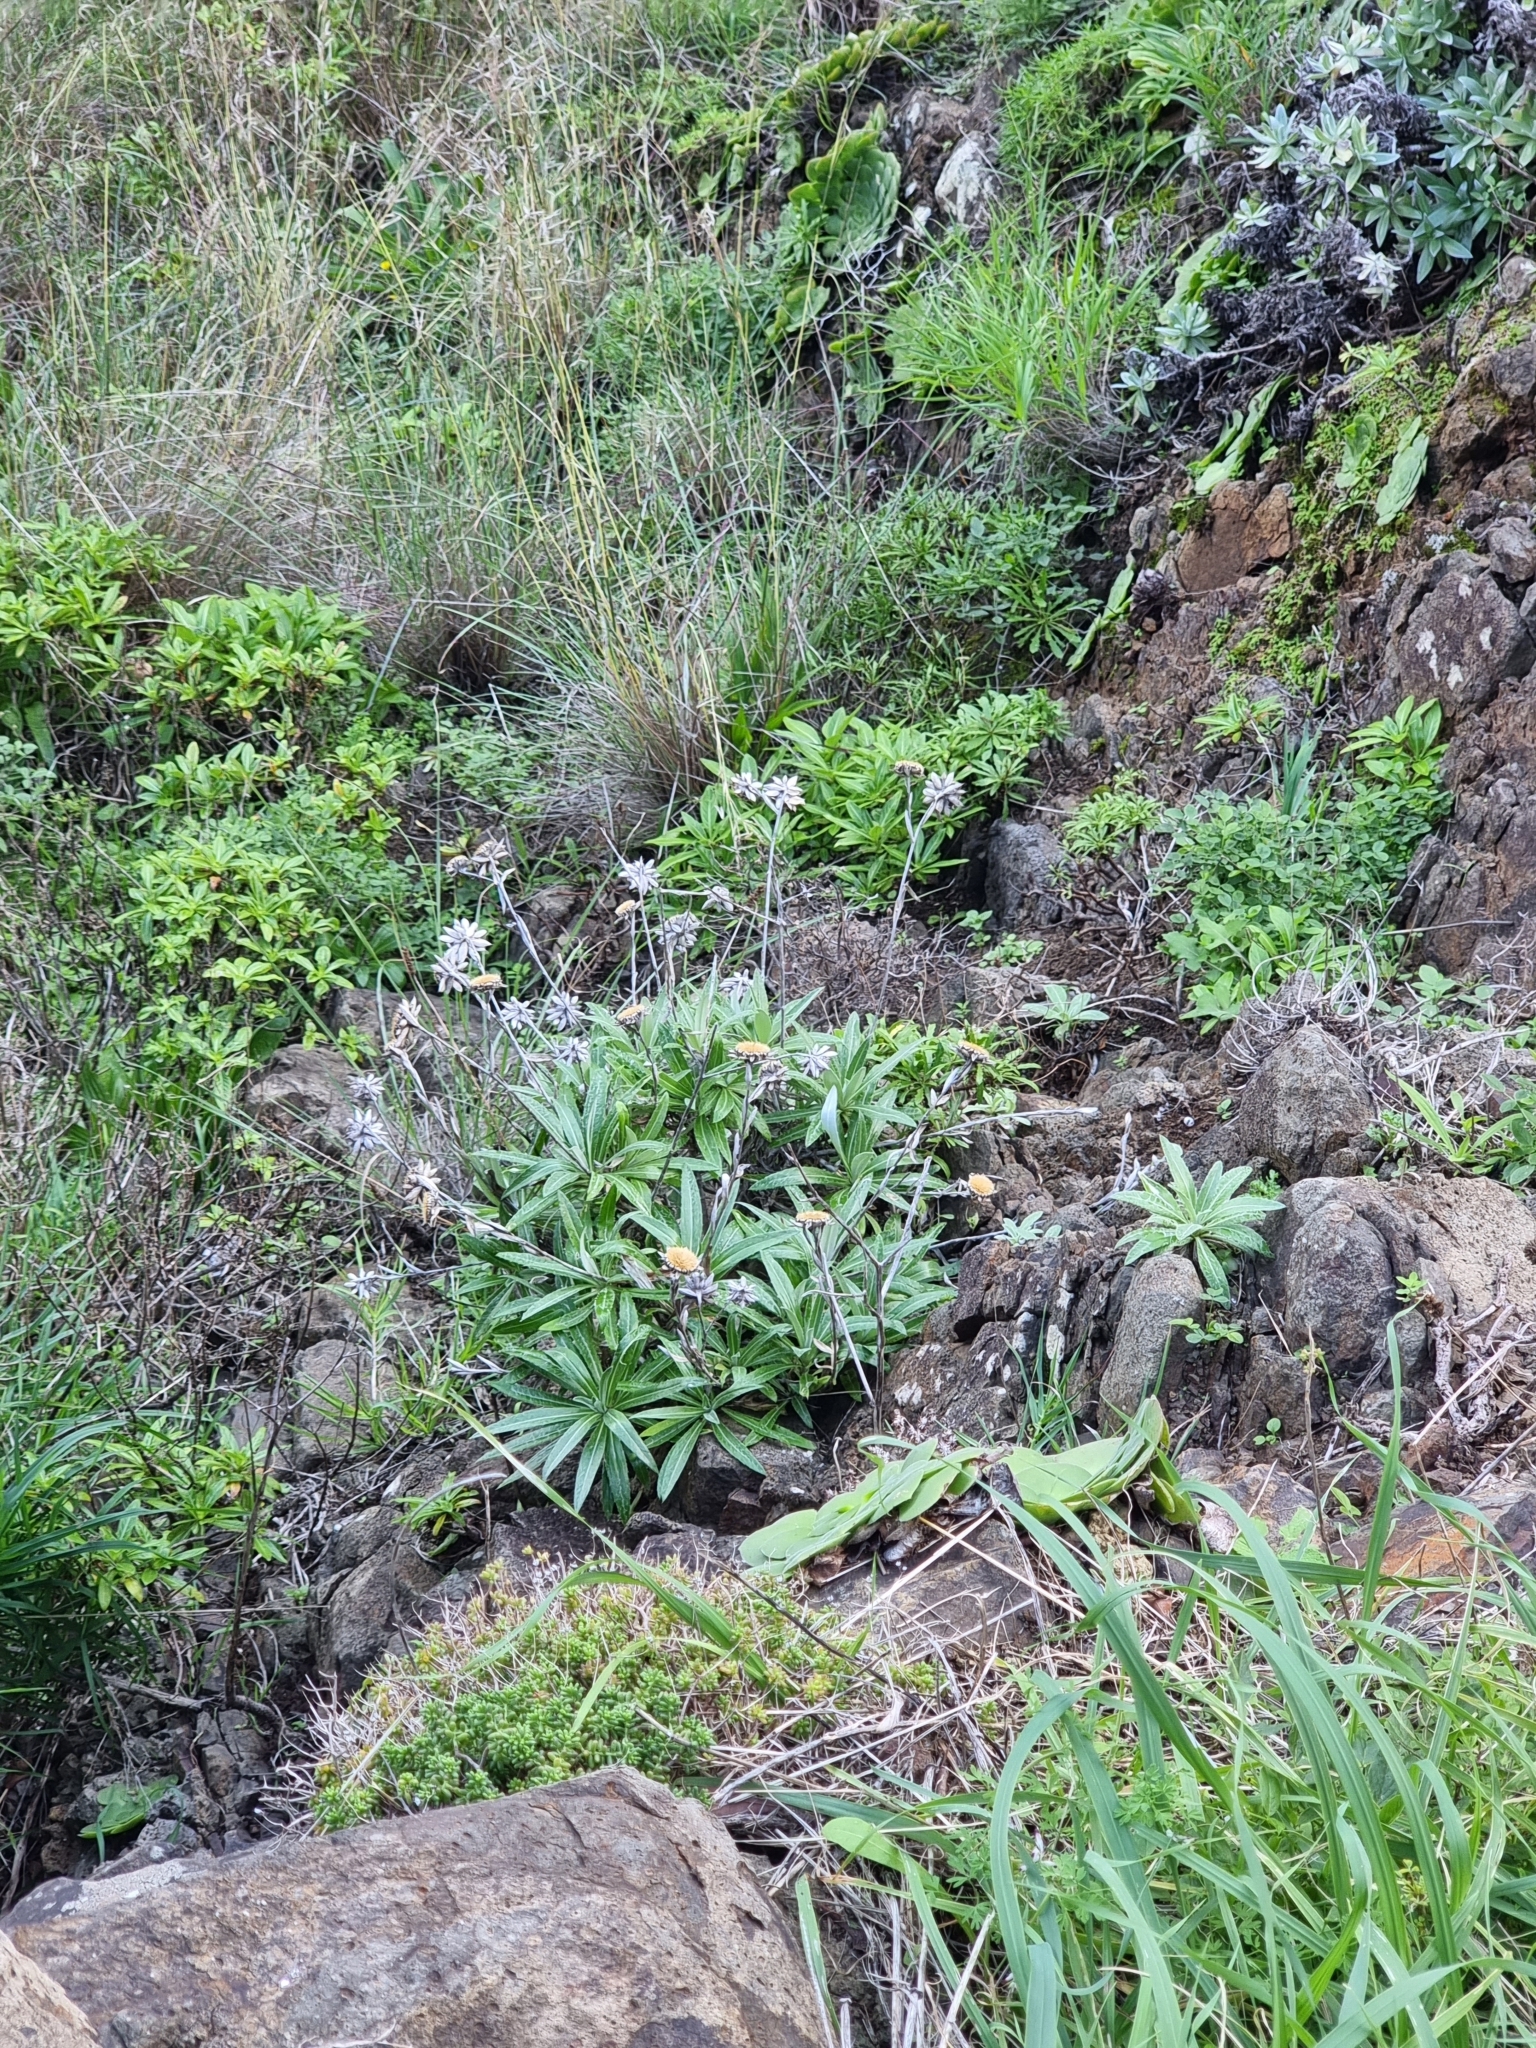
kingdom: Plantae
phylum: Tracheophyta
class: Magnoliopsida
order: Asterales
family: Asteraceae
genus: Carlina
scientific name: Carlina salicifolia
